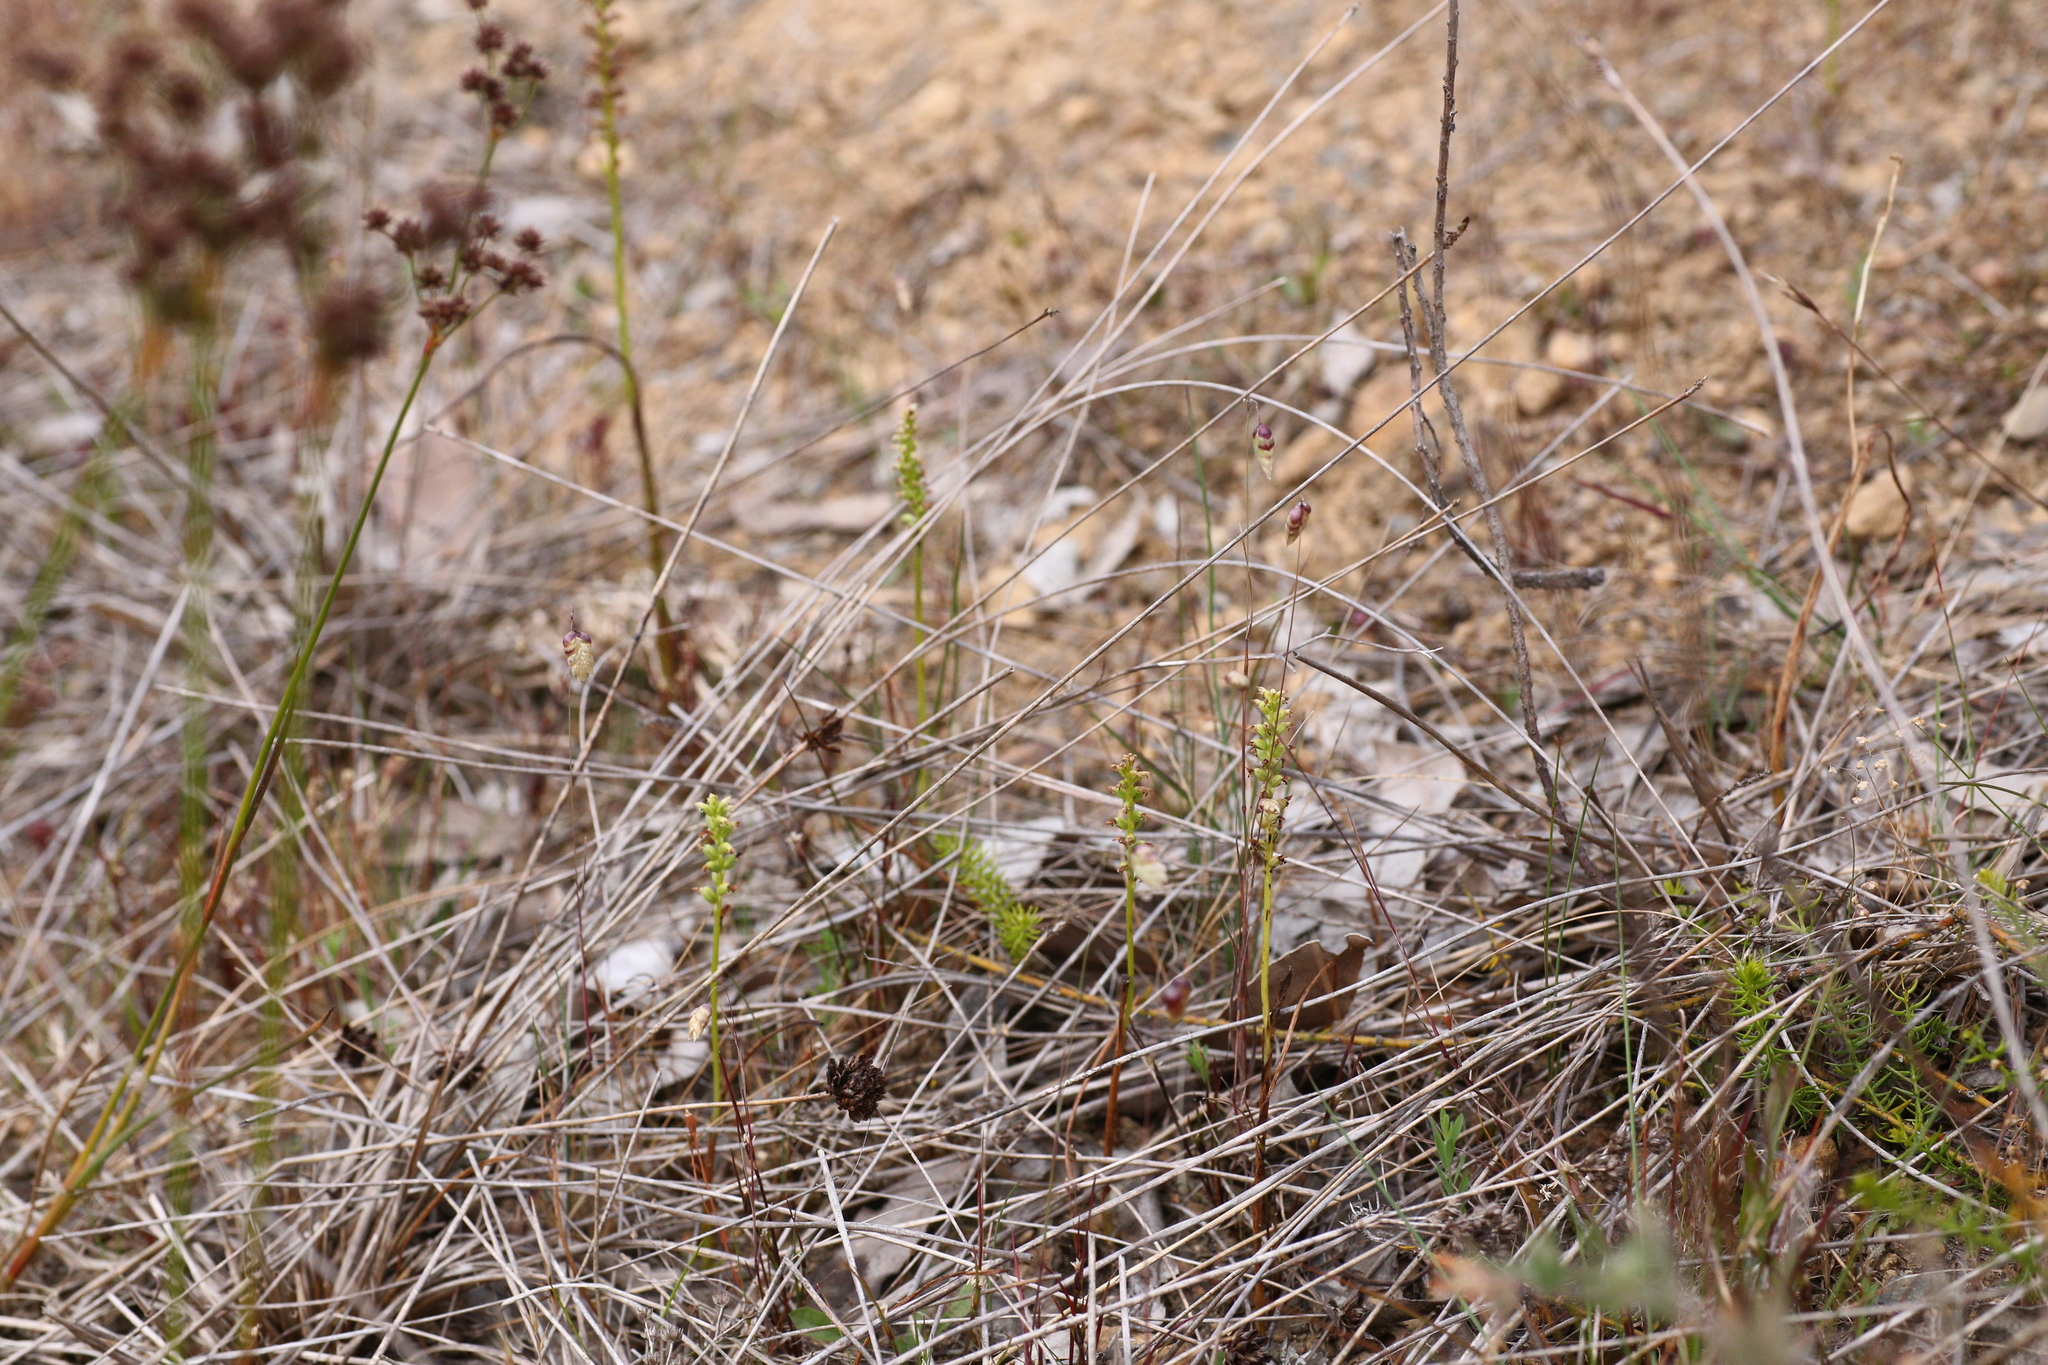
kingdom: Plantae
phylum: Tracheophyta
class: Liliopsida
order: Asparagales
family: Orchidaceae
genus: Microtis
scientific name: Microtis media
